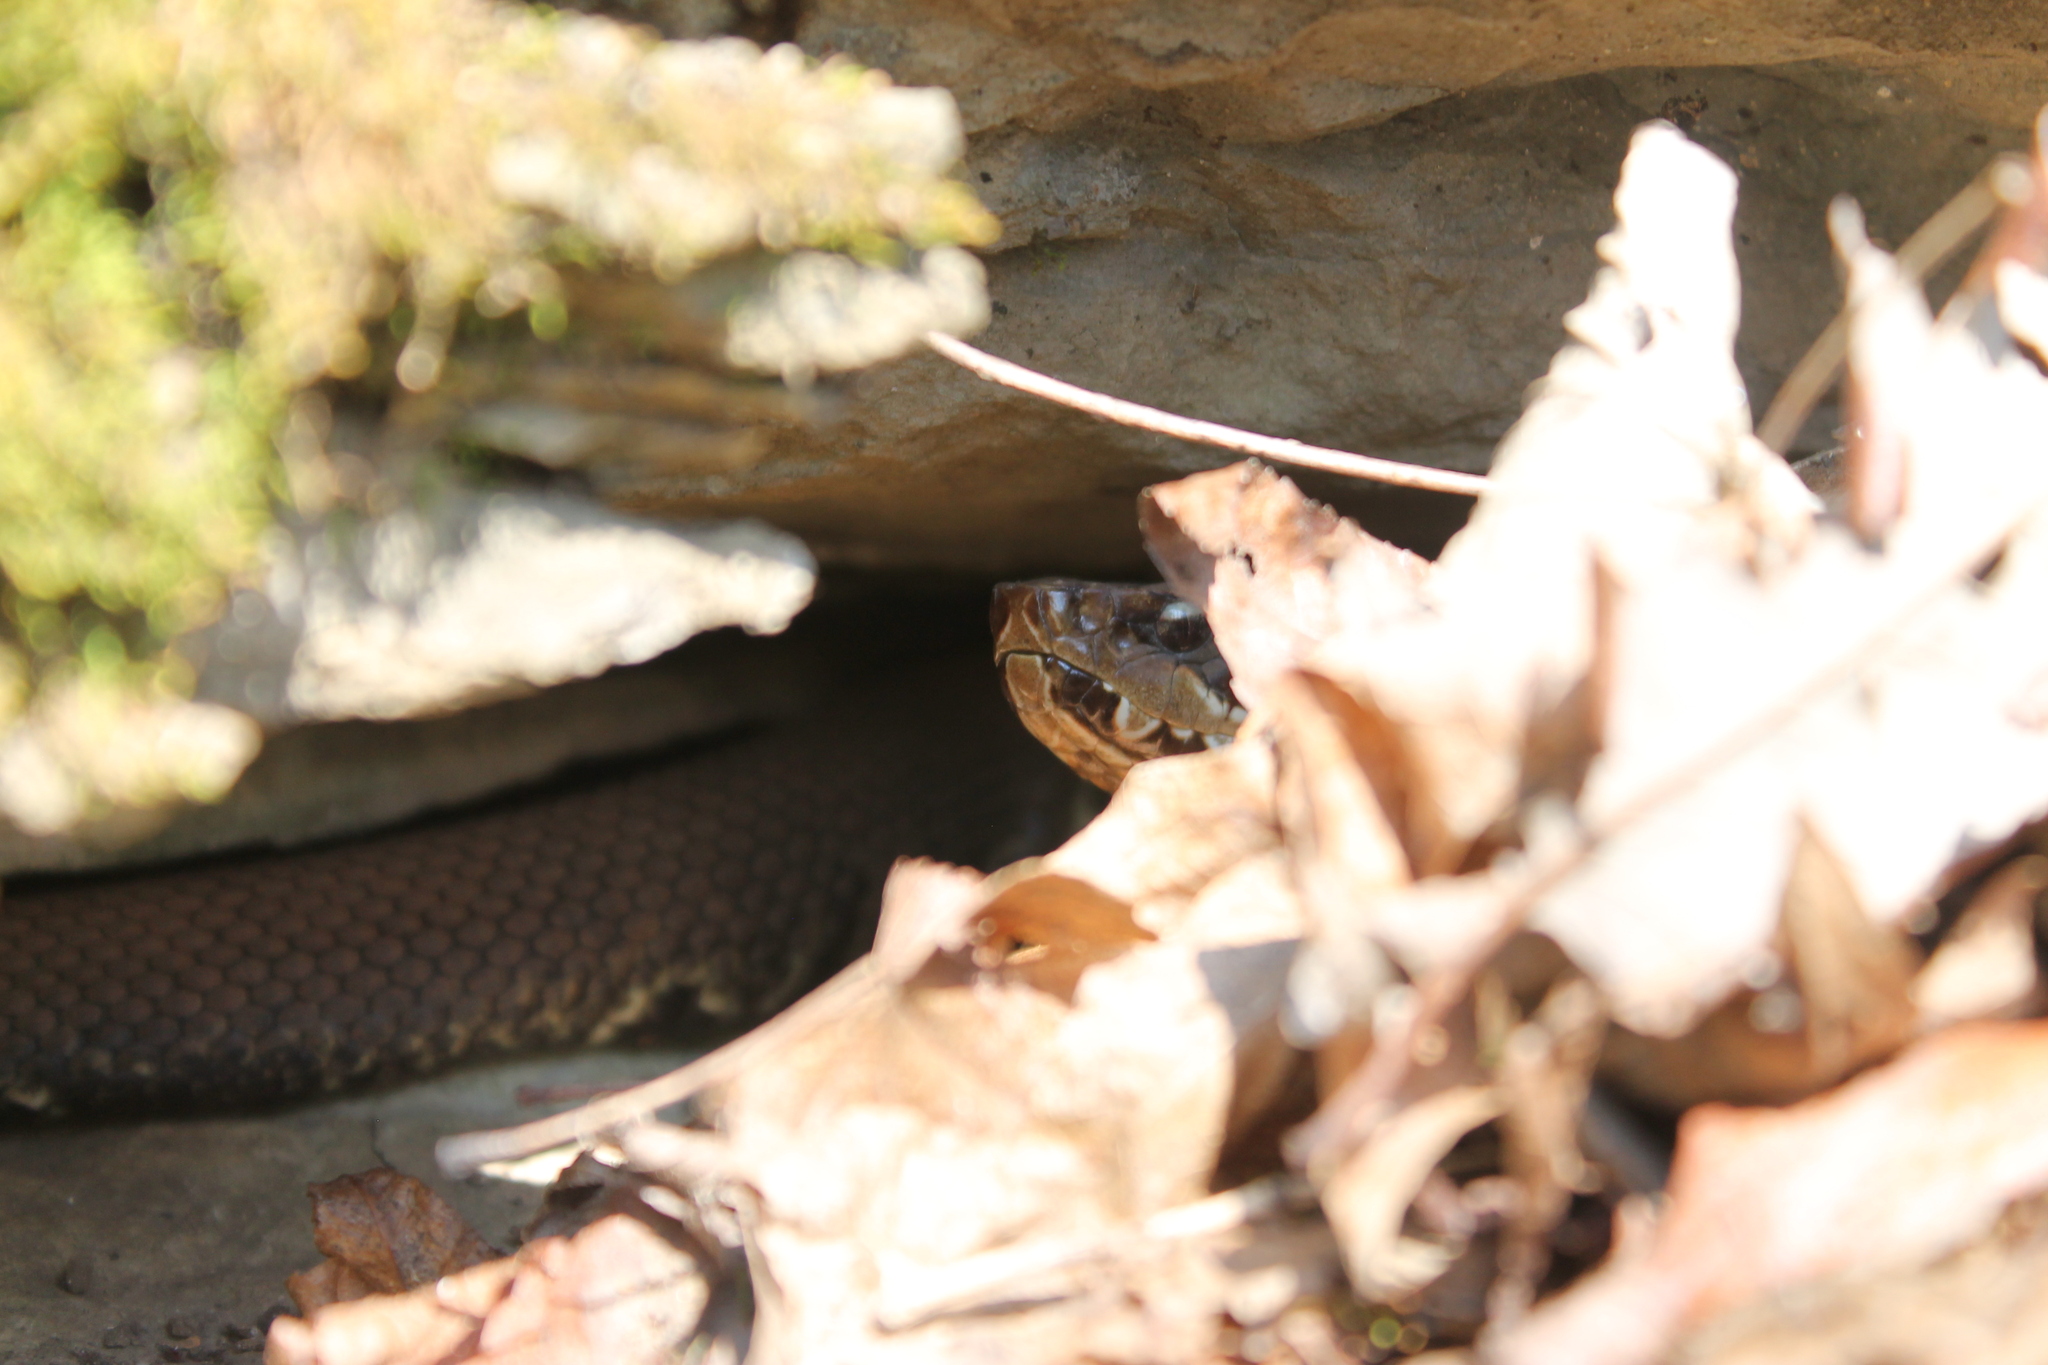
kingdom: Animalia
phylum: Chordata
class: Squamata
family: Viperidae
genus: Agkistrodon
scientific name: Agkistrodon piscivorus
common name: Cottonmouth
